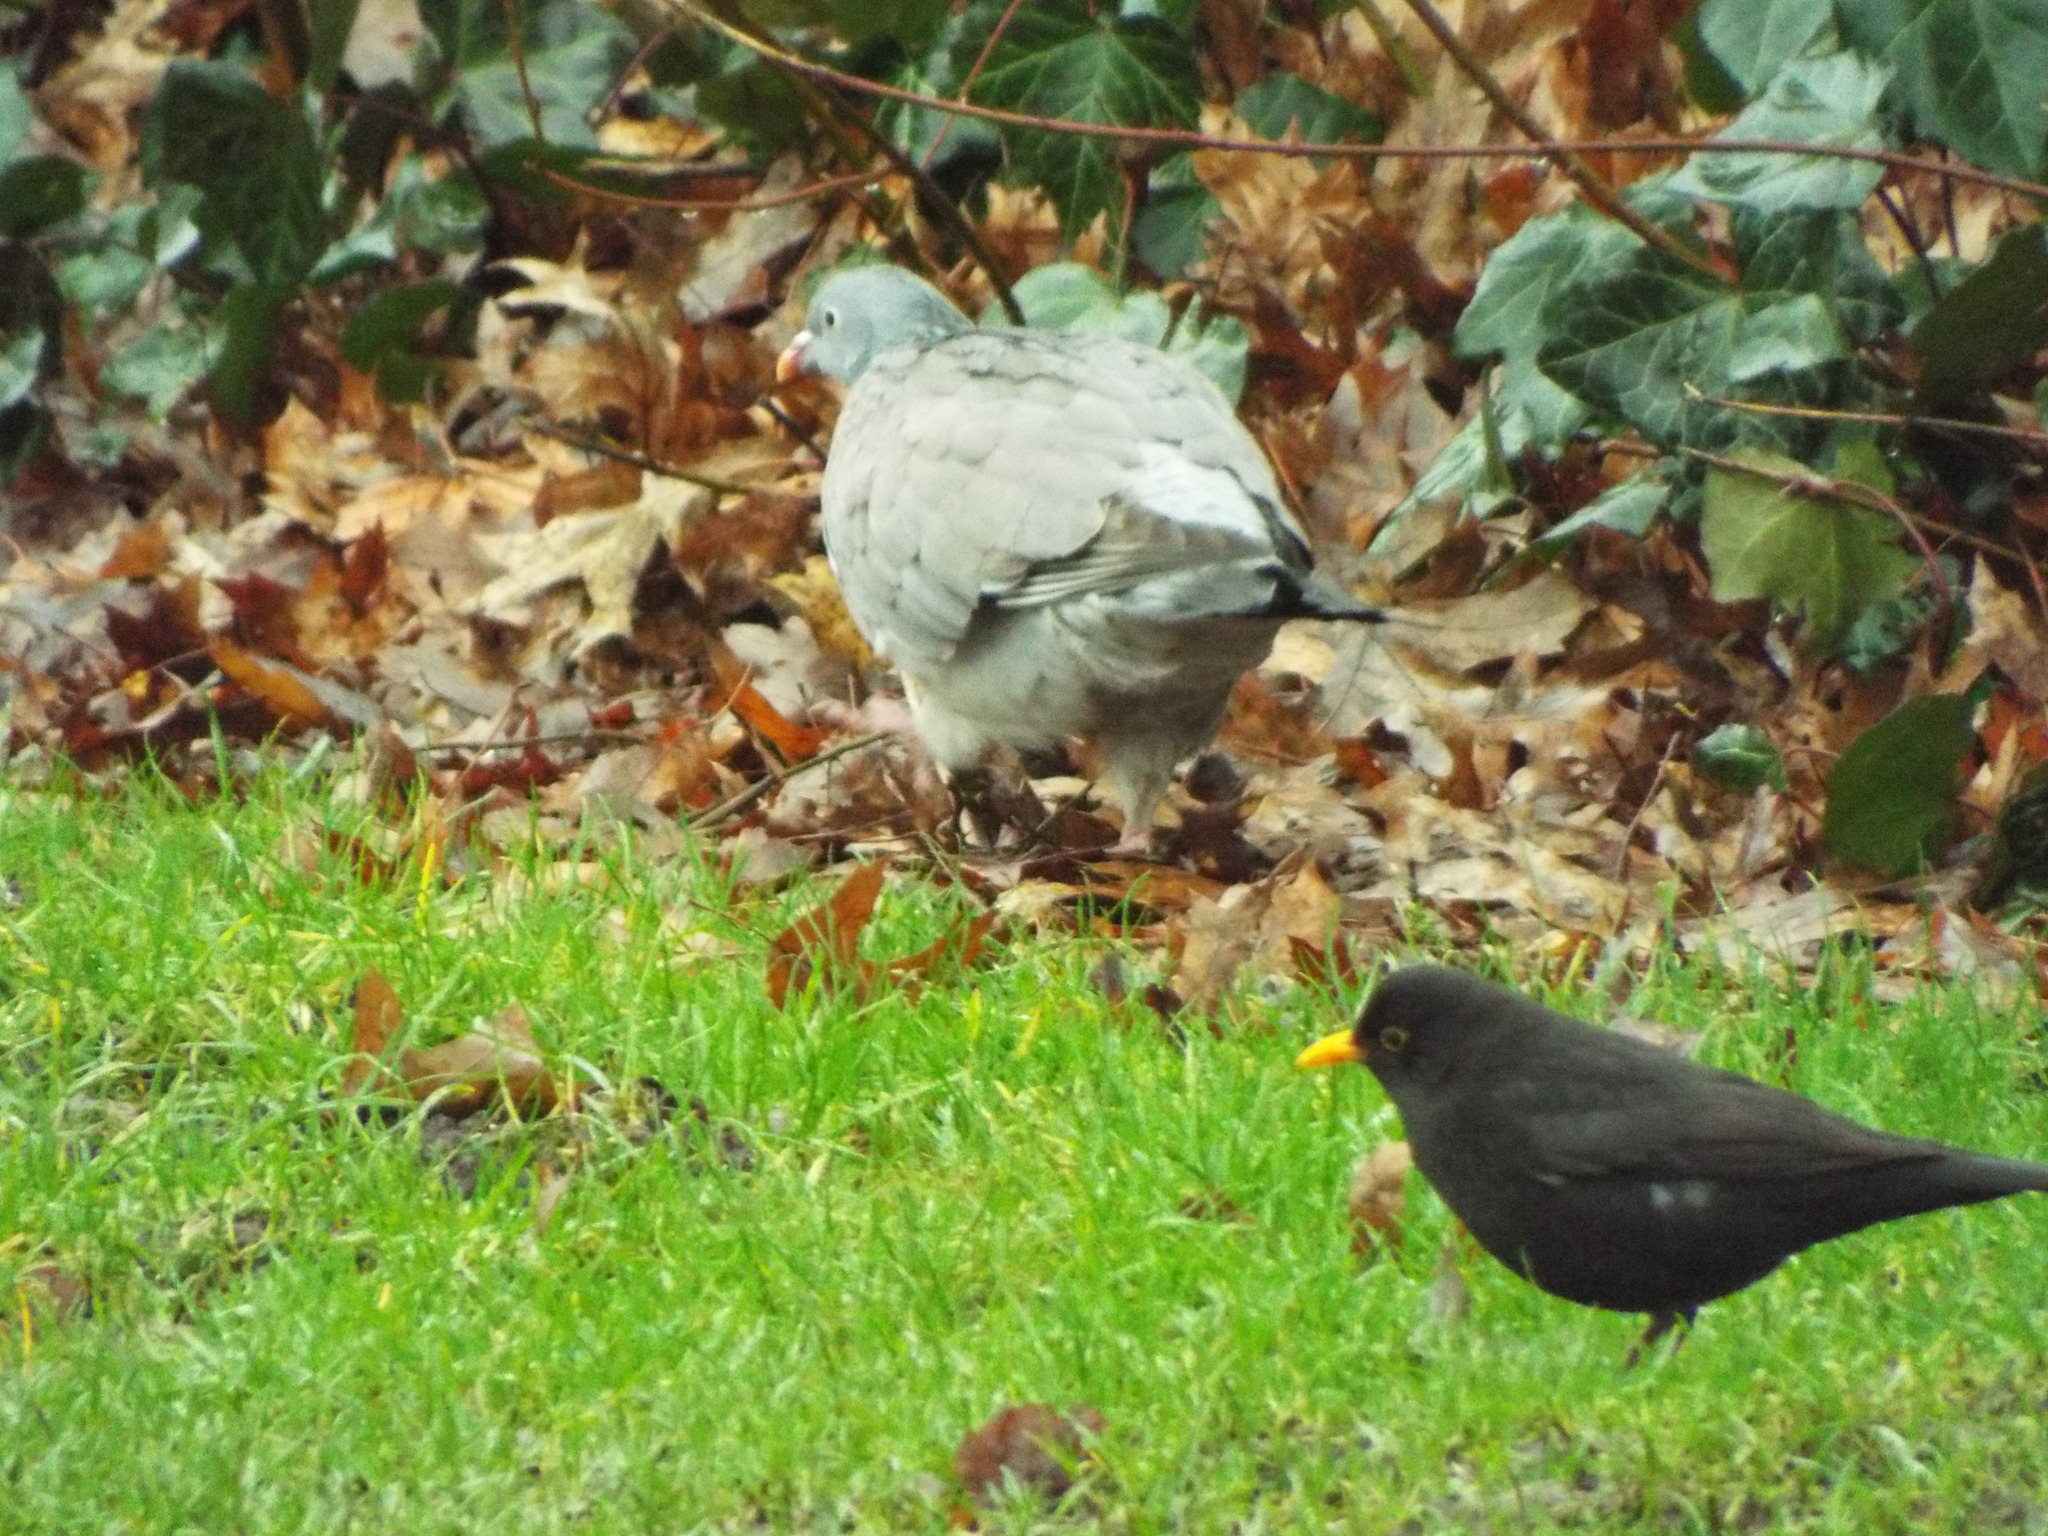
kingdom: Animalia
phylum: Chordata
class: Aves
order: Passeriformes
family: Turdidae
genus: Turdus
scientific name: Turdus merula
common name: Common blackbird
